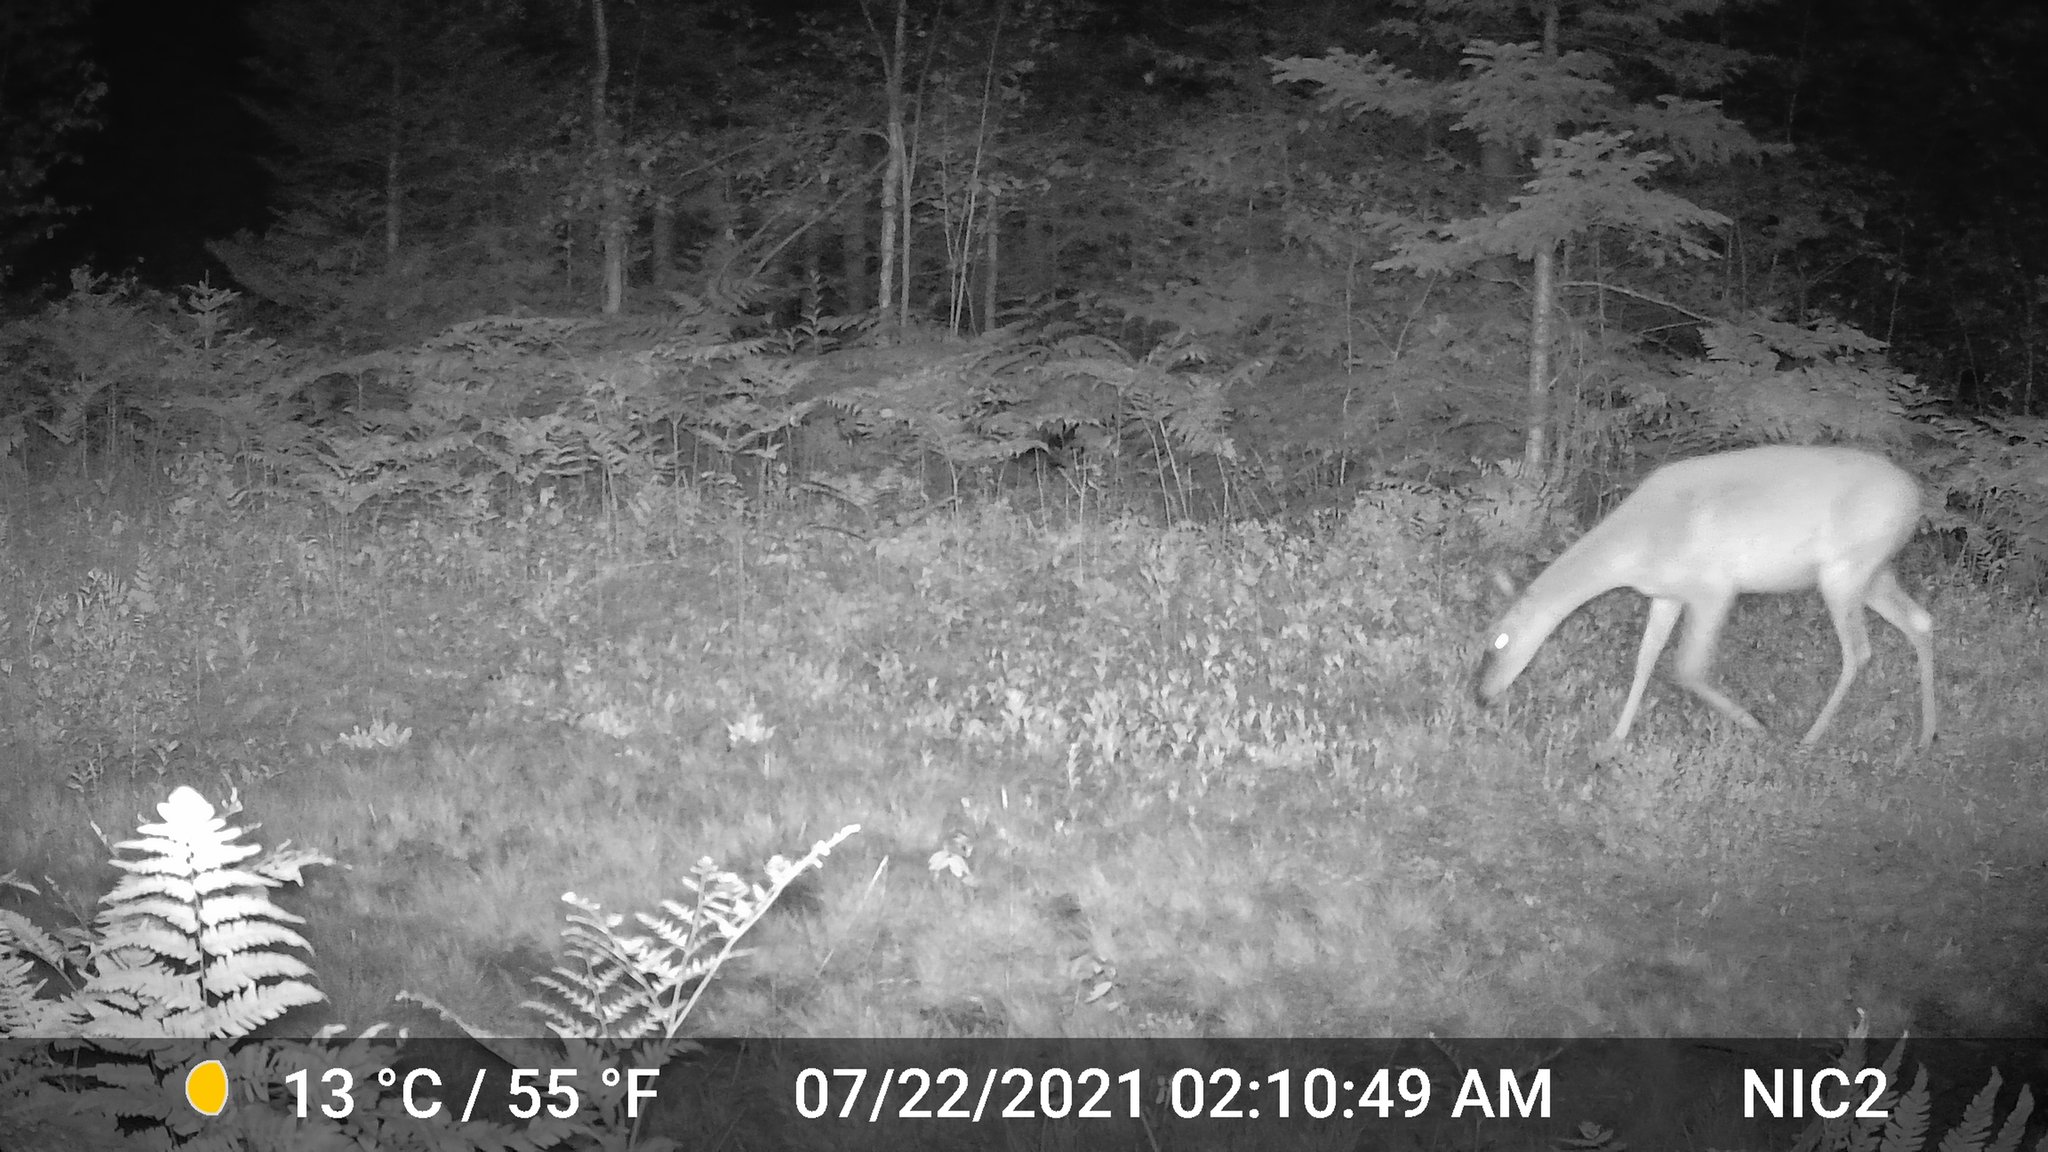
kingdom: Animalia
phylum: Chordata
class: Mammalia
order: Artiodactyla
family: Cervidae
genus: Odocoileus
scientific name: Odocoileus virginianus
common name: White-tailed deer
